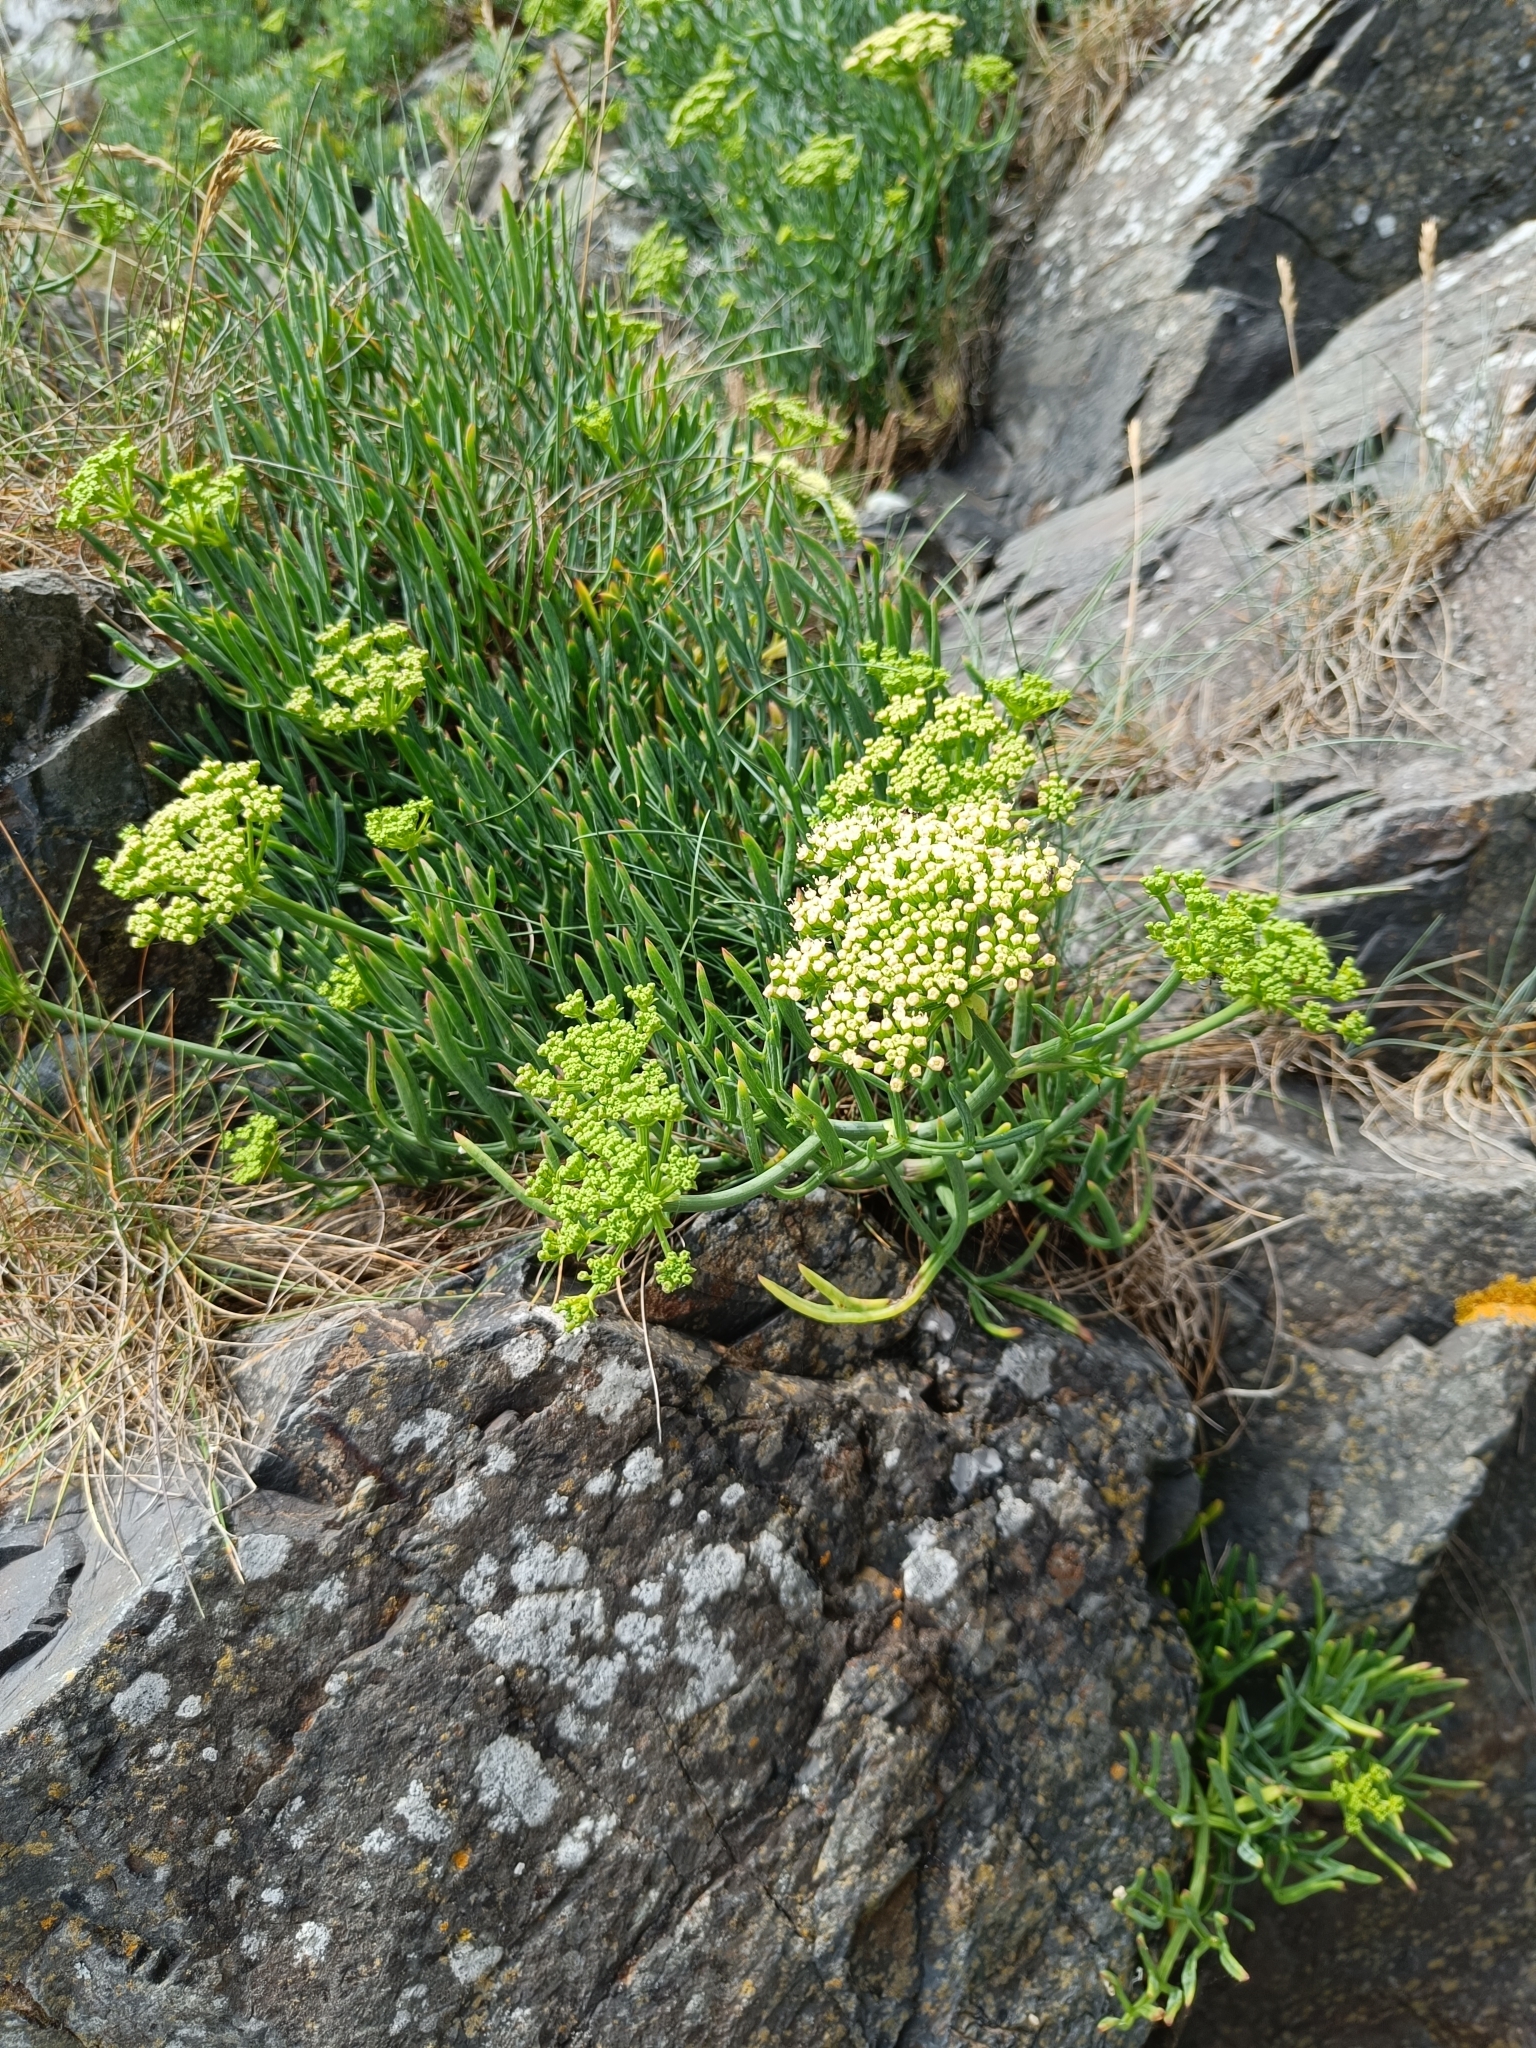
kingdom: Plantae
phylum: Tracheophyta
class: Magnoliopsida
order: Apiales
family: Apiaceae
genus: Crithmum
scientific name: Crithmum maritimum
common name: Rock samphire
